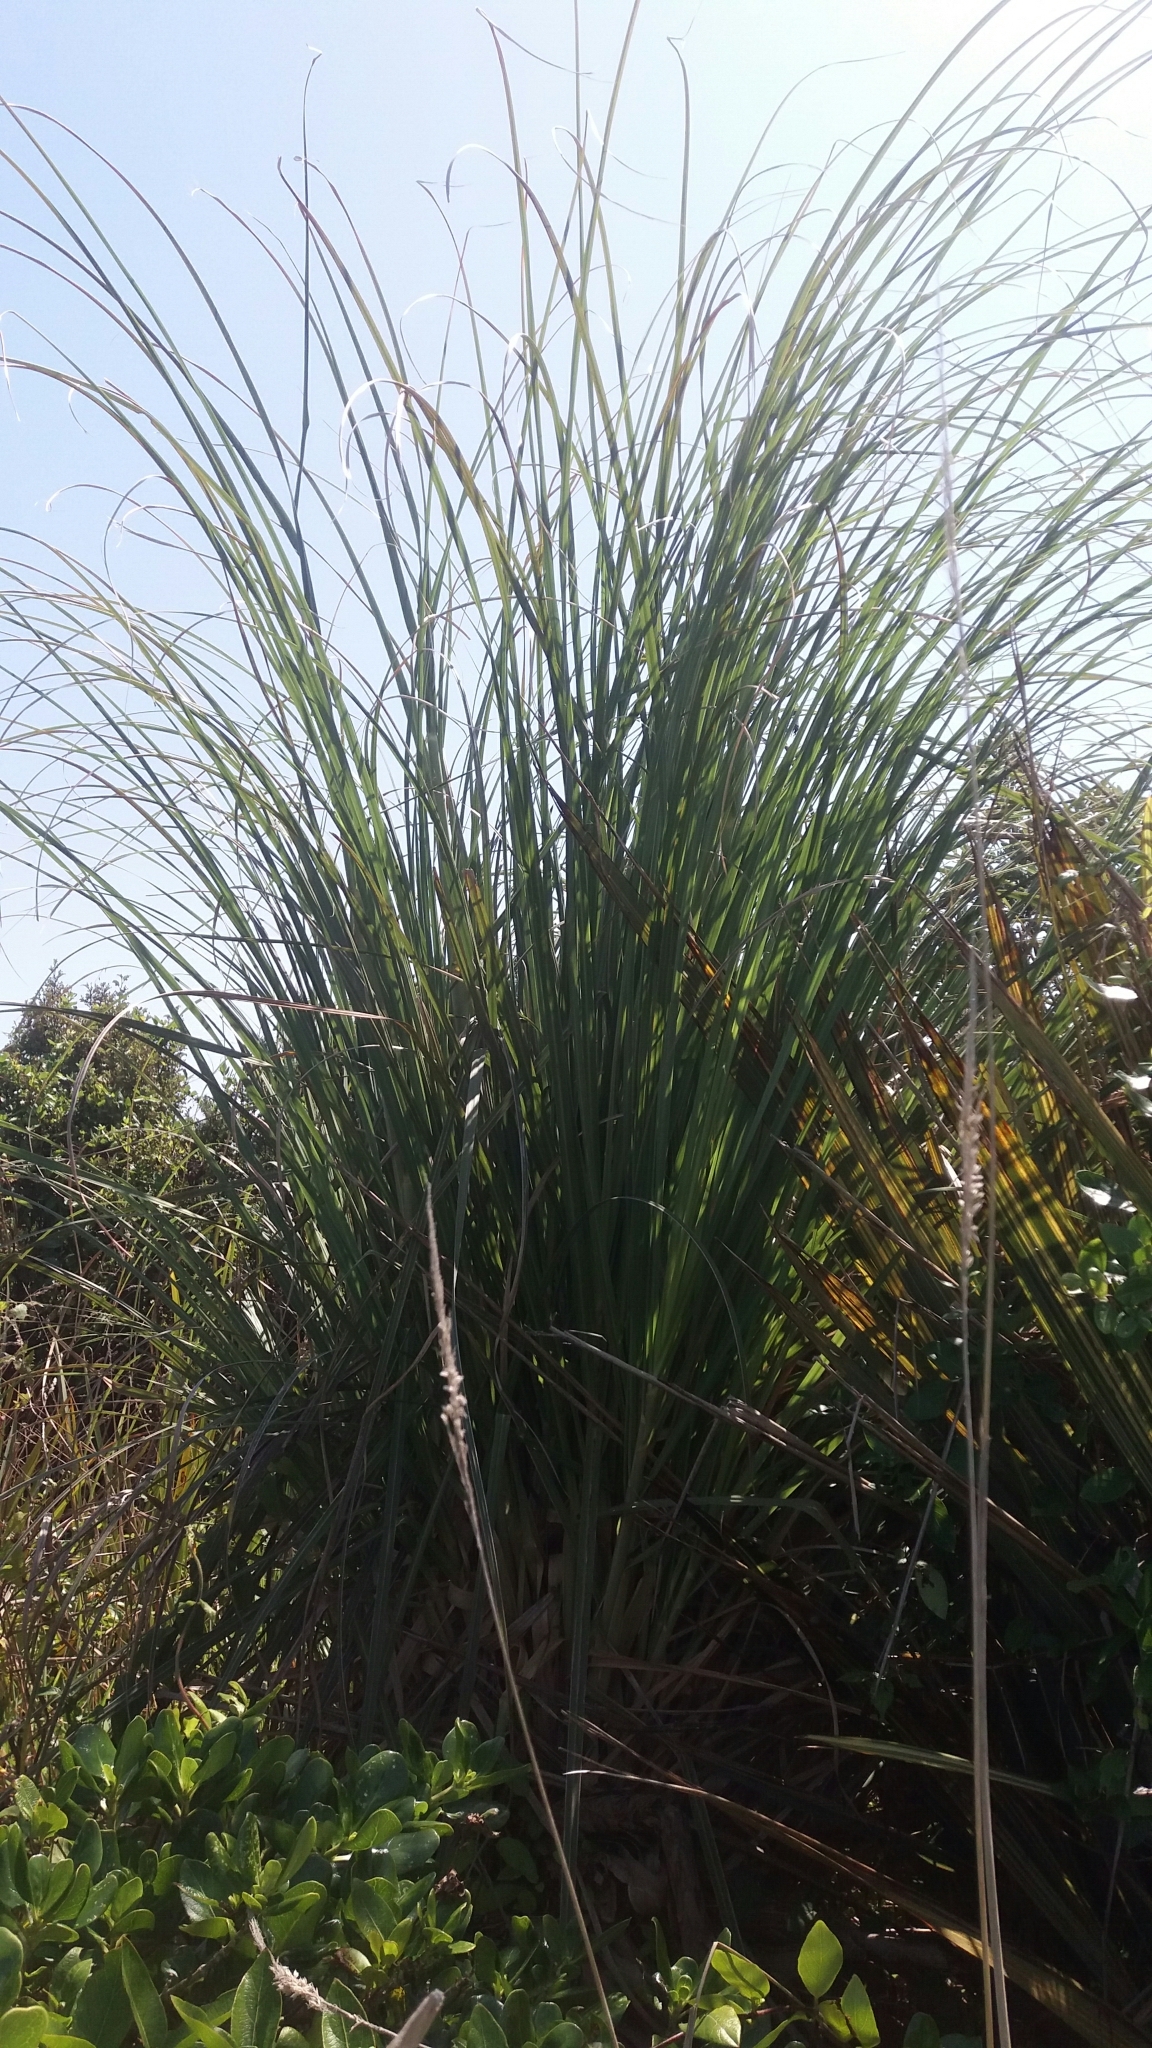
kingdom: Plantae
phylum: Tracheophyta
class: Liliopsida
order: Poales
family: Poaceae
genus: Cortaderia
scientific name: Cortaderia selloana
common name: Uruguayan pampas grass
